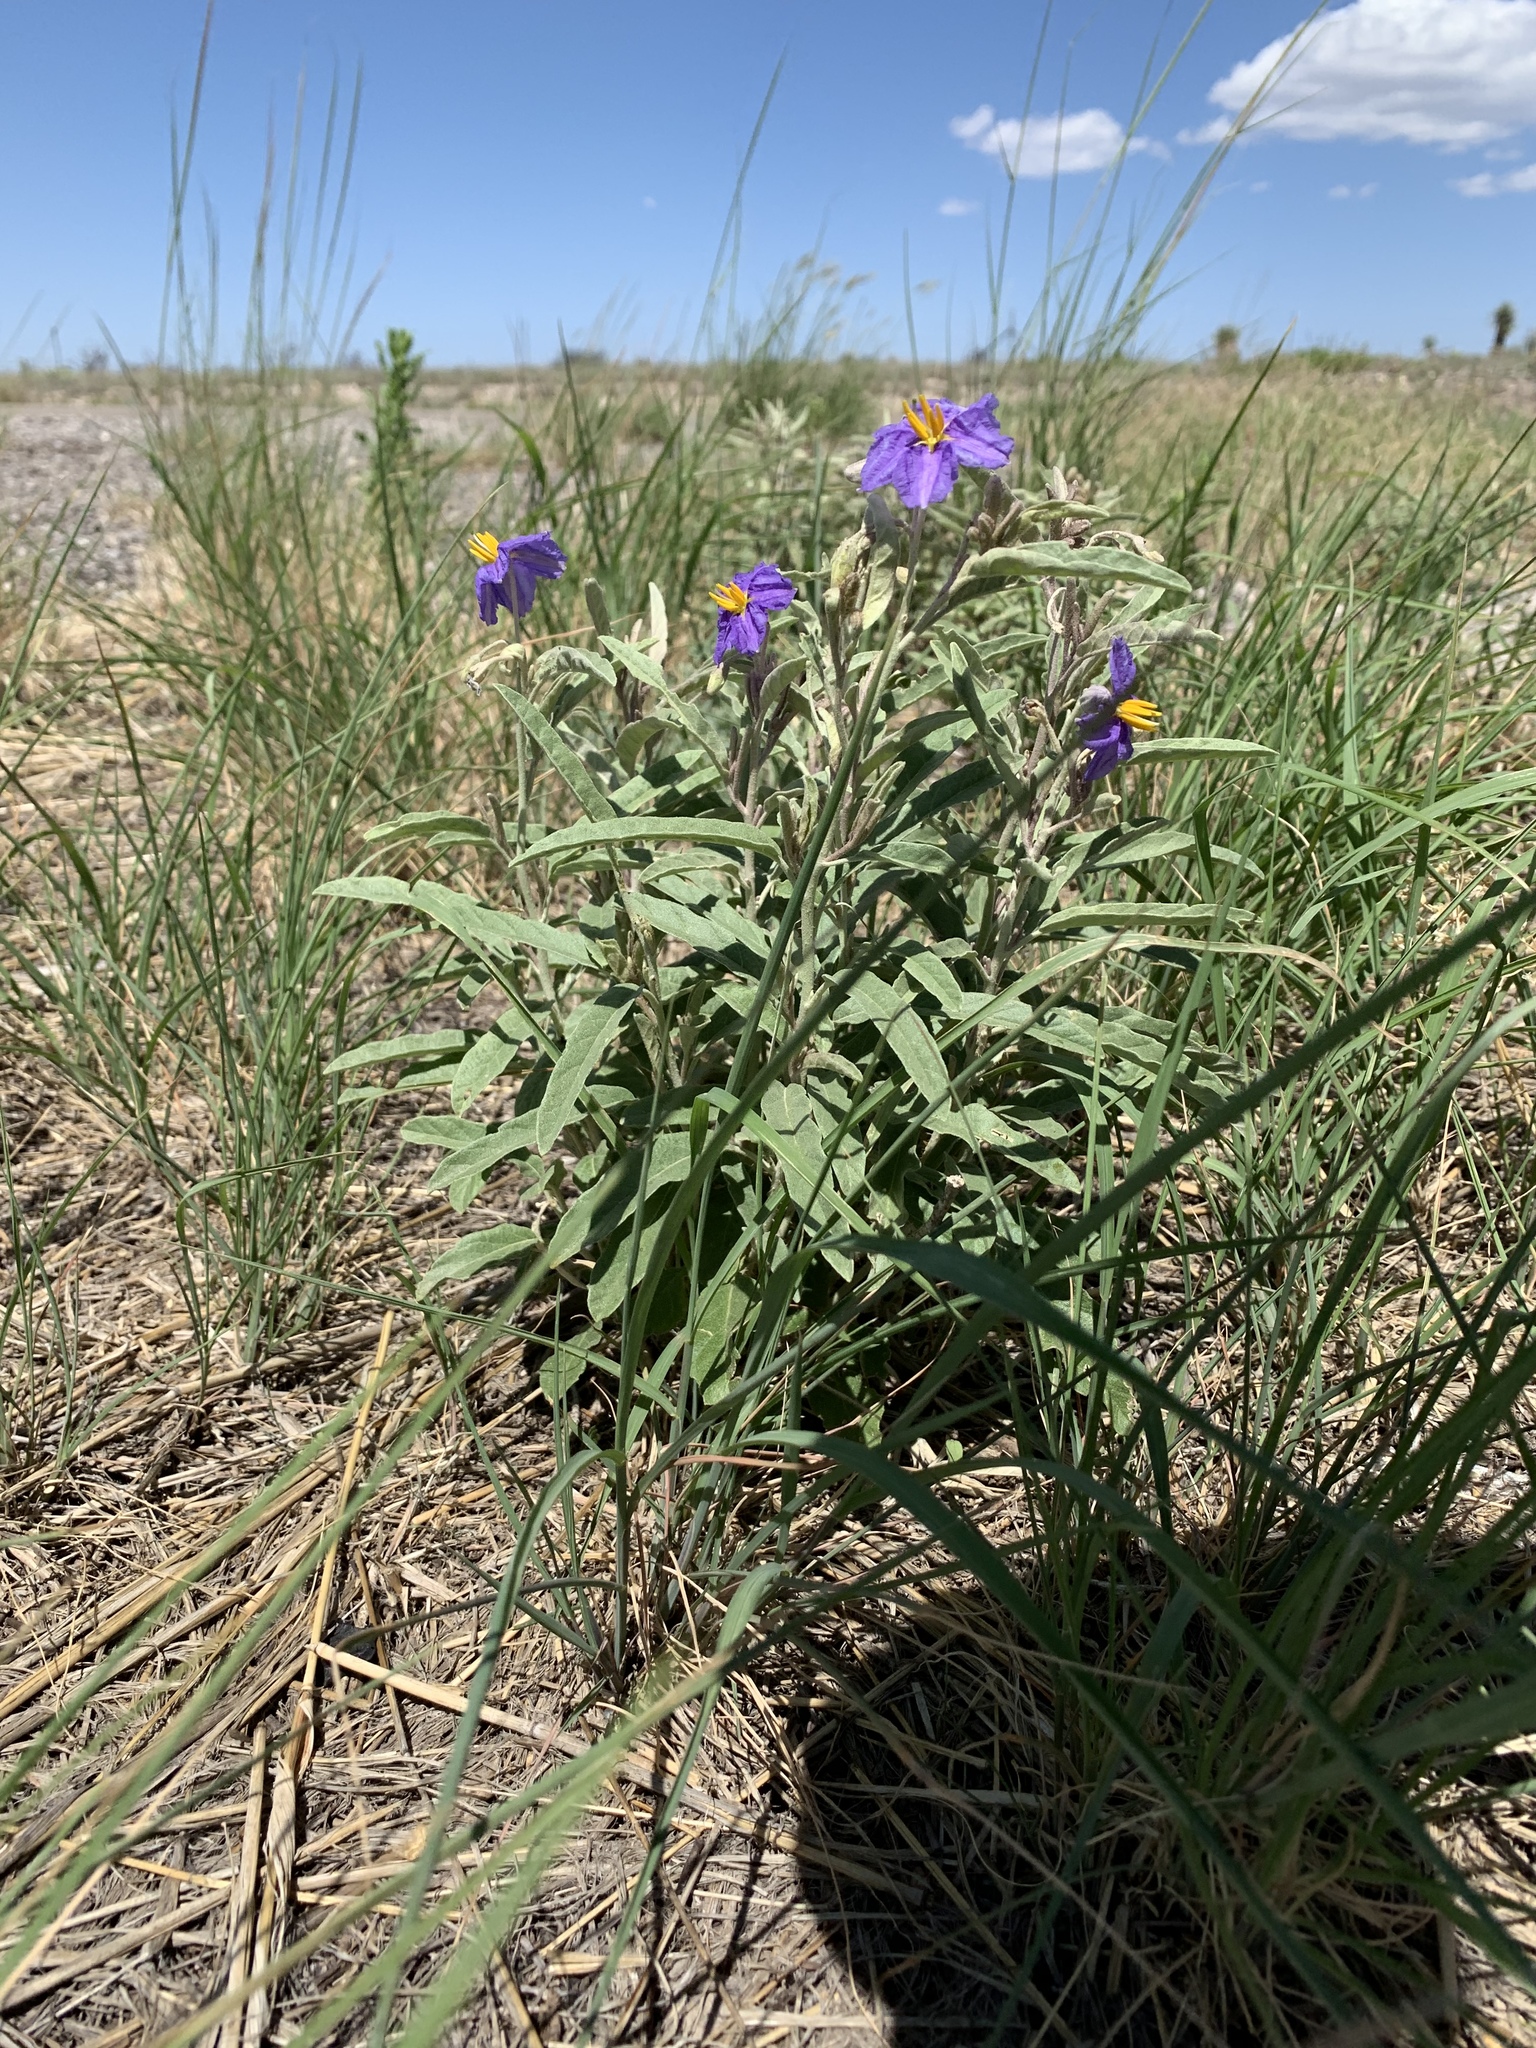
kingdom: Plantae
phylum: Tracheophyta
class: Magnoliopsida
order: Solanales
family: Solanaceae
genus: Solanum
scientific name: Solanum elaeagnifolium
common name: Silverleaf nightshade
